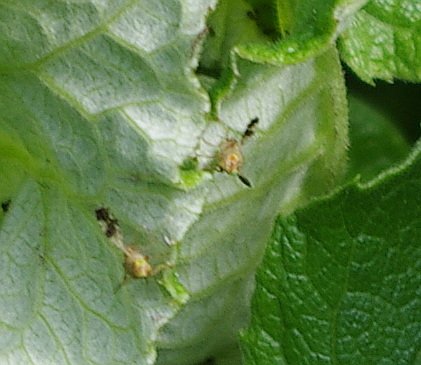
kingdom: Animalia
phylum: Arthropoda
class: Insecta
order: Diptera
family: Tephritidae
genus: Tephritis
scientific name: Tephritis bardanae
